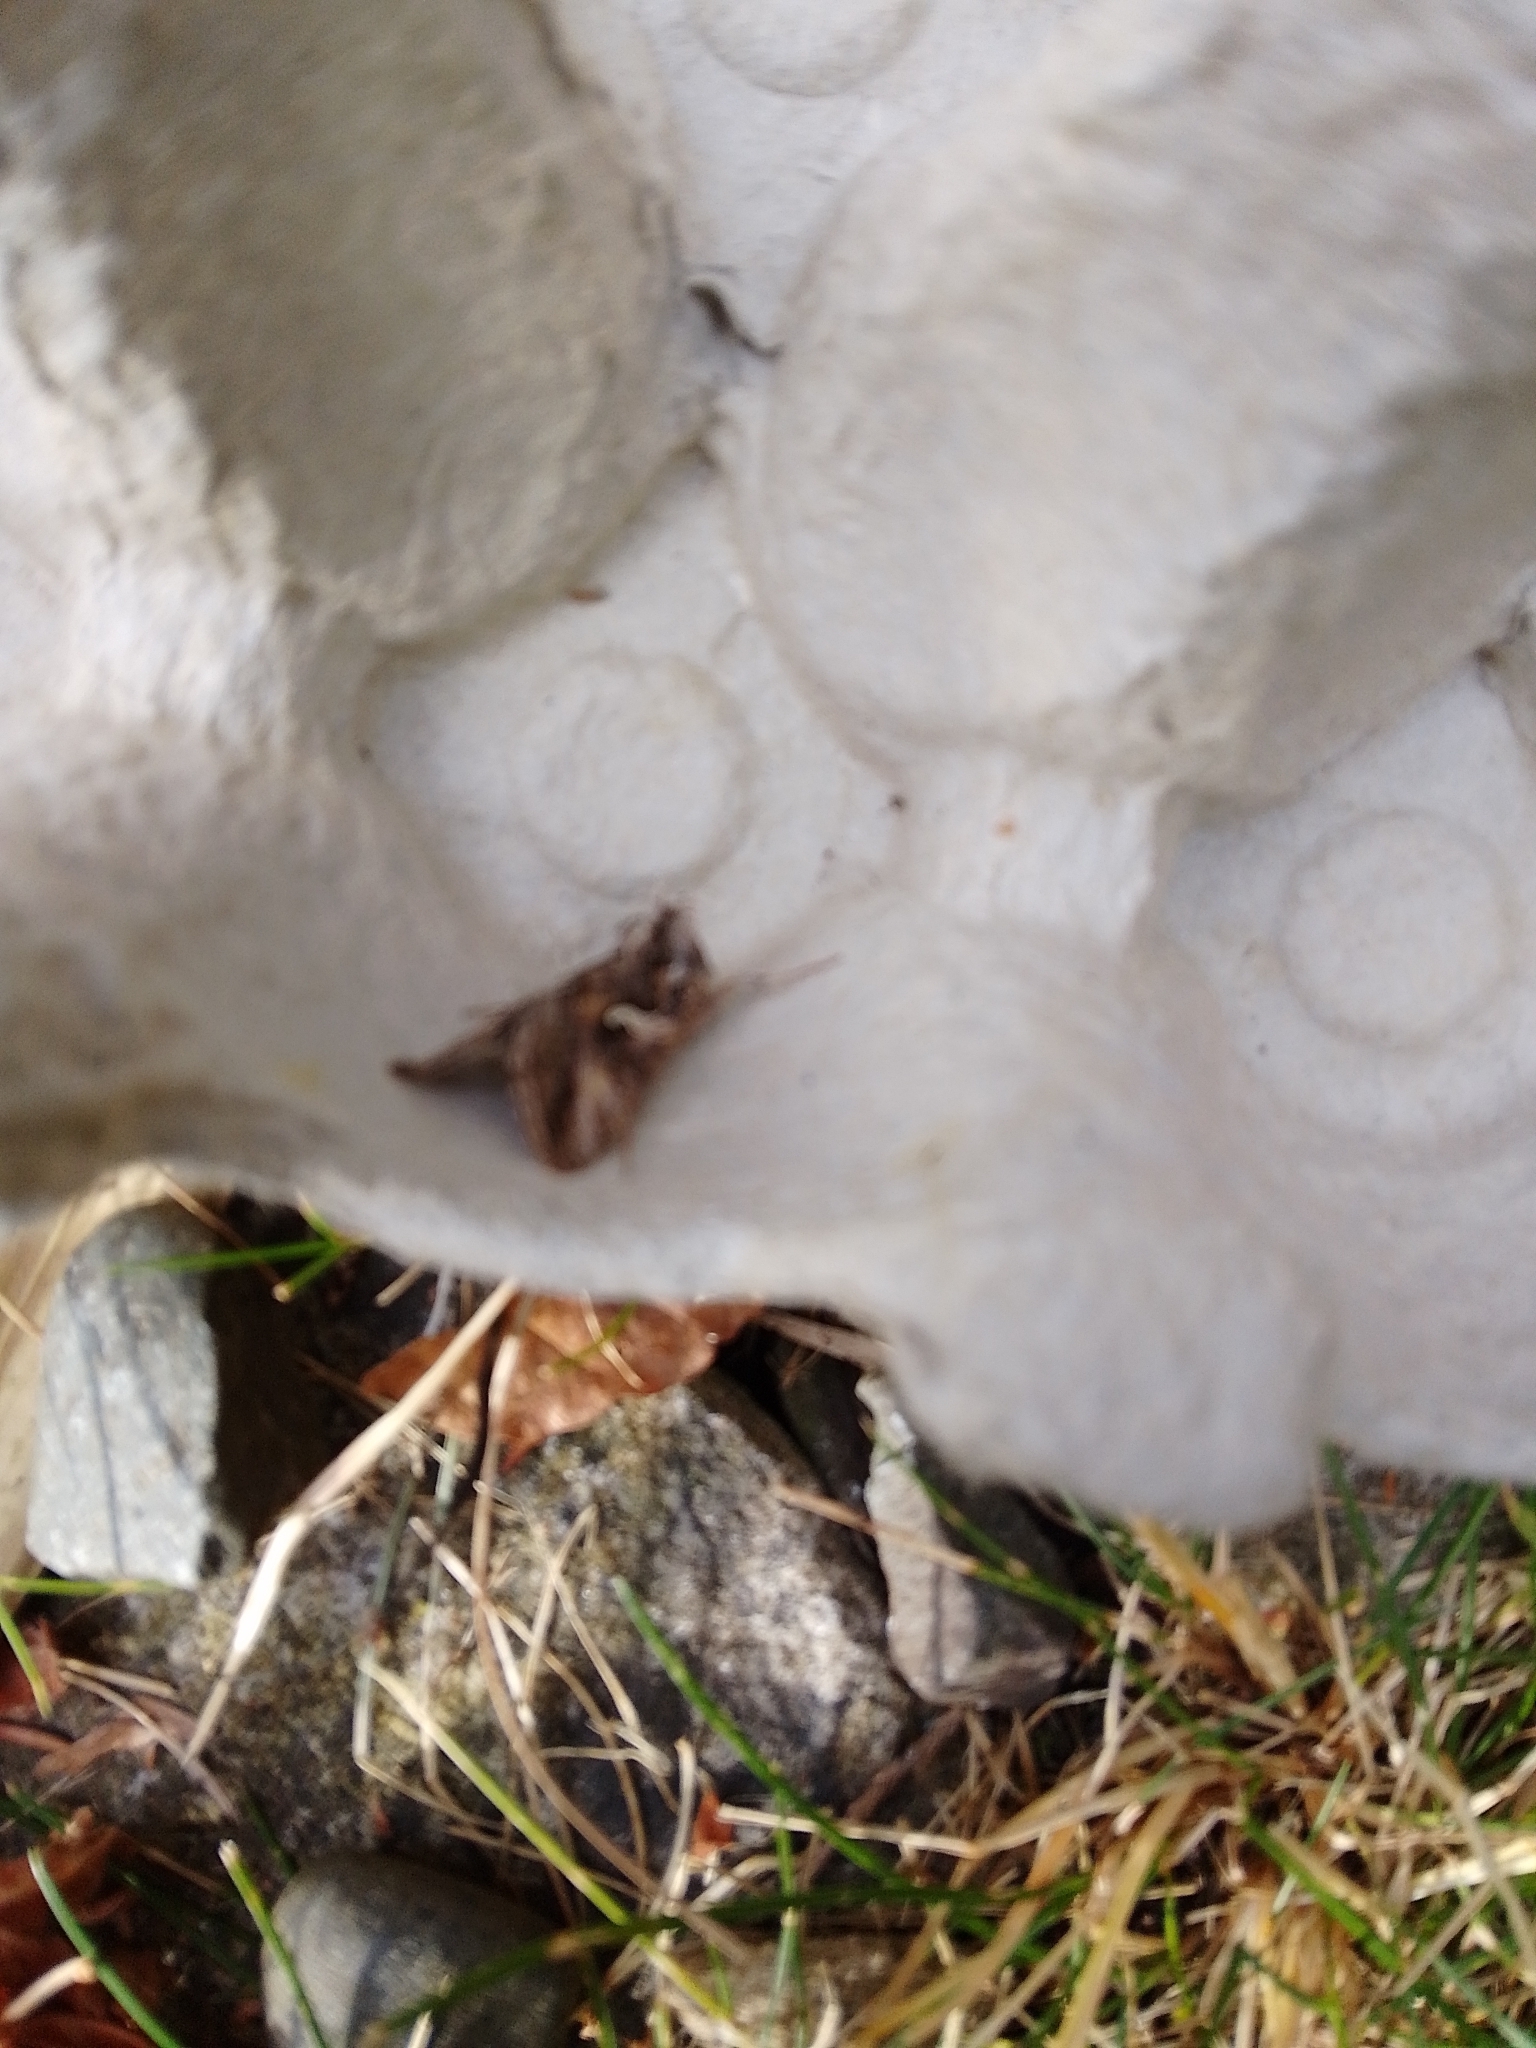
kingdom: Animalia
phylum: Arthropoda
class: Insecta
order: Lepidoptera
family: Noctuidae
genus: Autographa
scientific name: Autographa gamma
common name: Silver y
